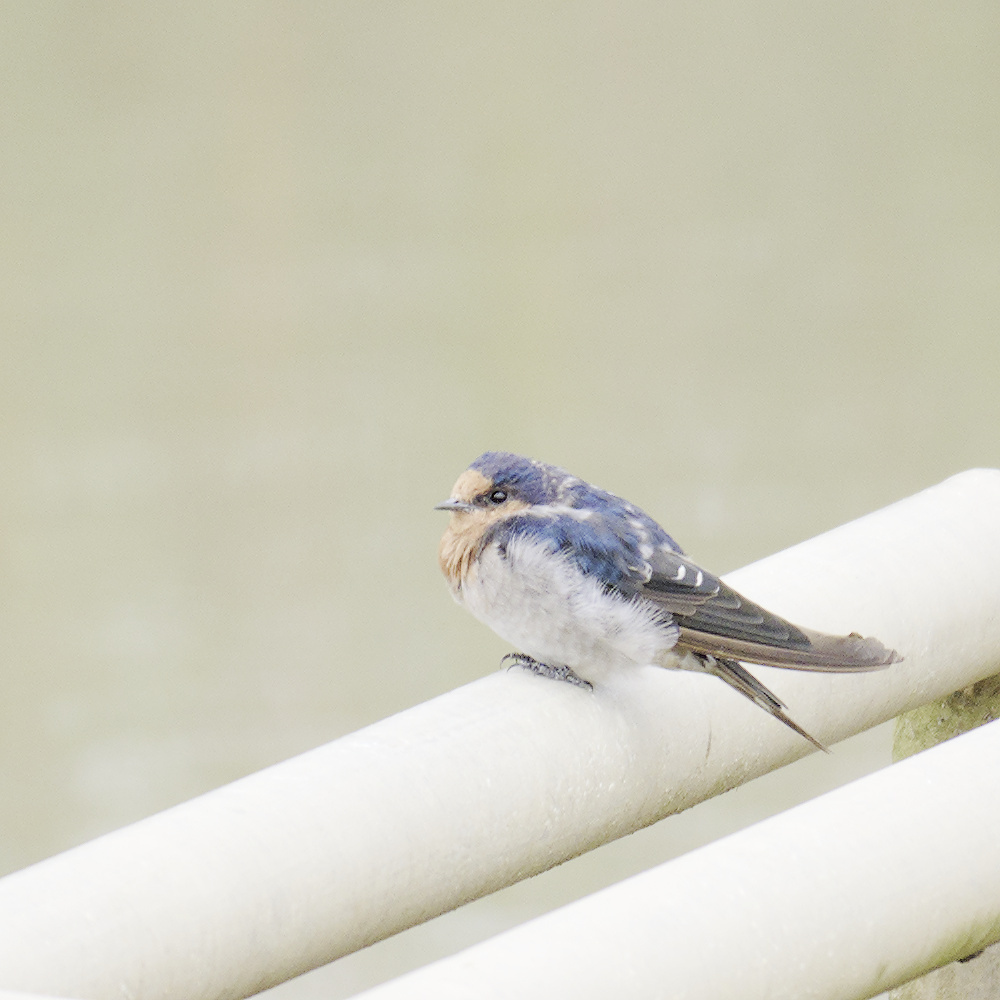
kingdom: Animalia
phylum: Chordata
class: Aves
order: Passeriformes
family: Hirundinidae
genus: Hirundo
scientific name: Hirundo neoxena
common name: Welcome swallow
